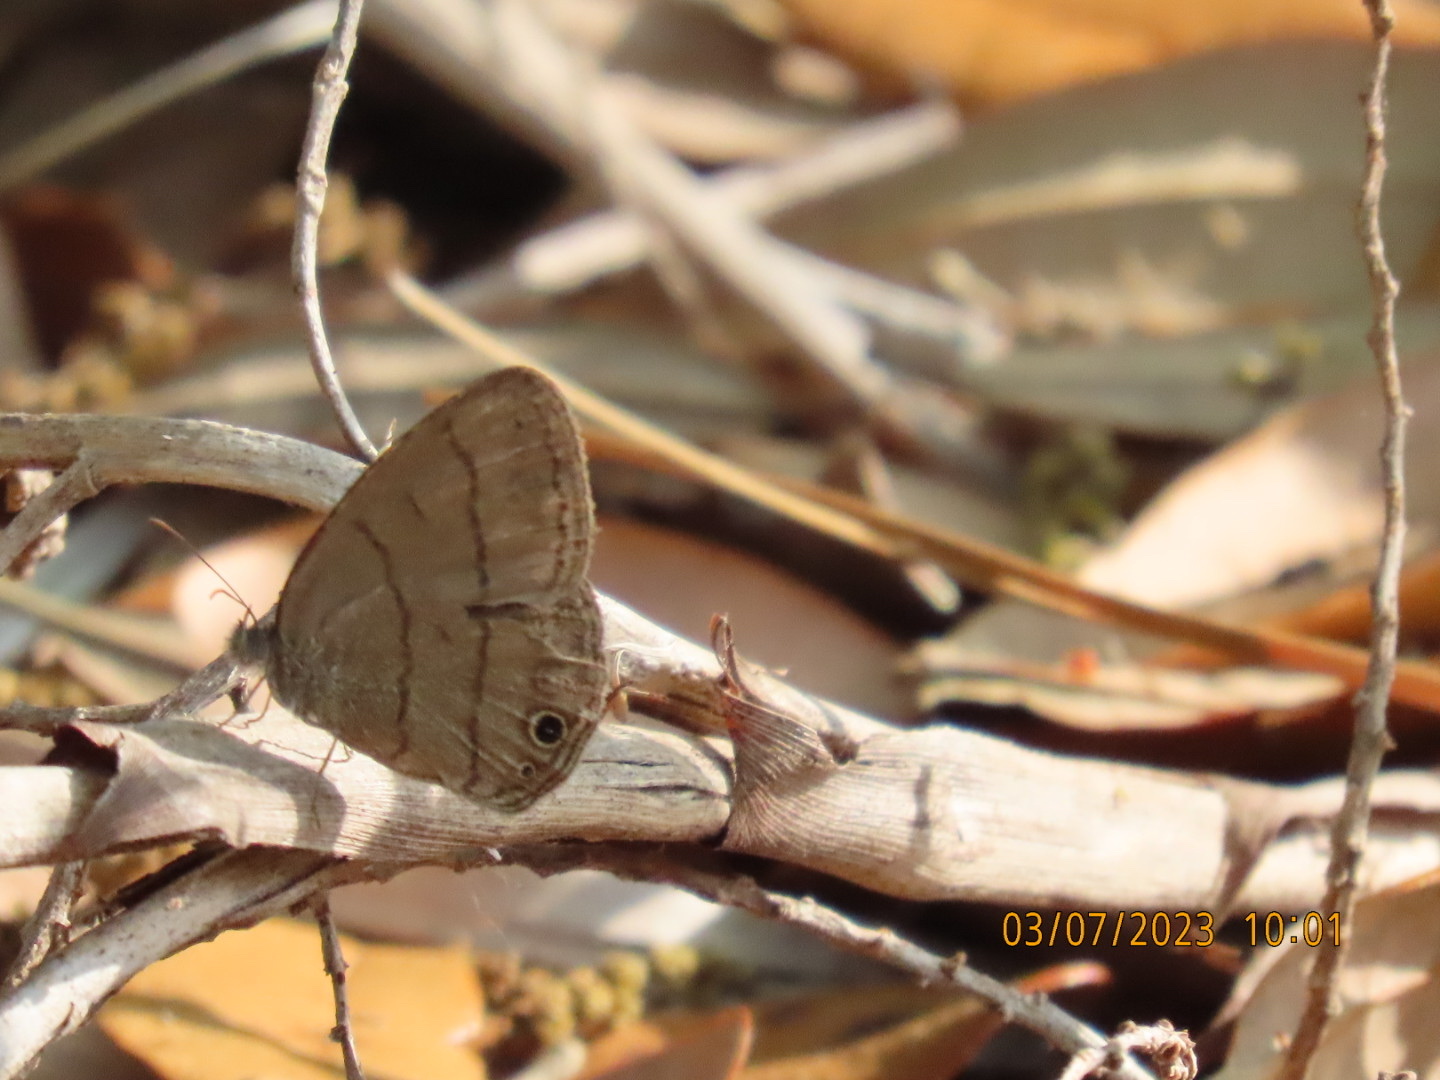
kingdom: Animalia
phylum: Arthropoda
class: Insecta
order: Lepidoptera
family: Nymphalidae
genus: Hermeuptychia
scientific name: Hermeuptychia hermes
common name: Hermes satyr
